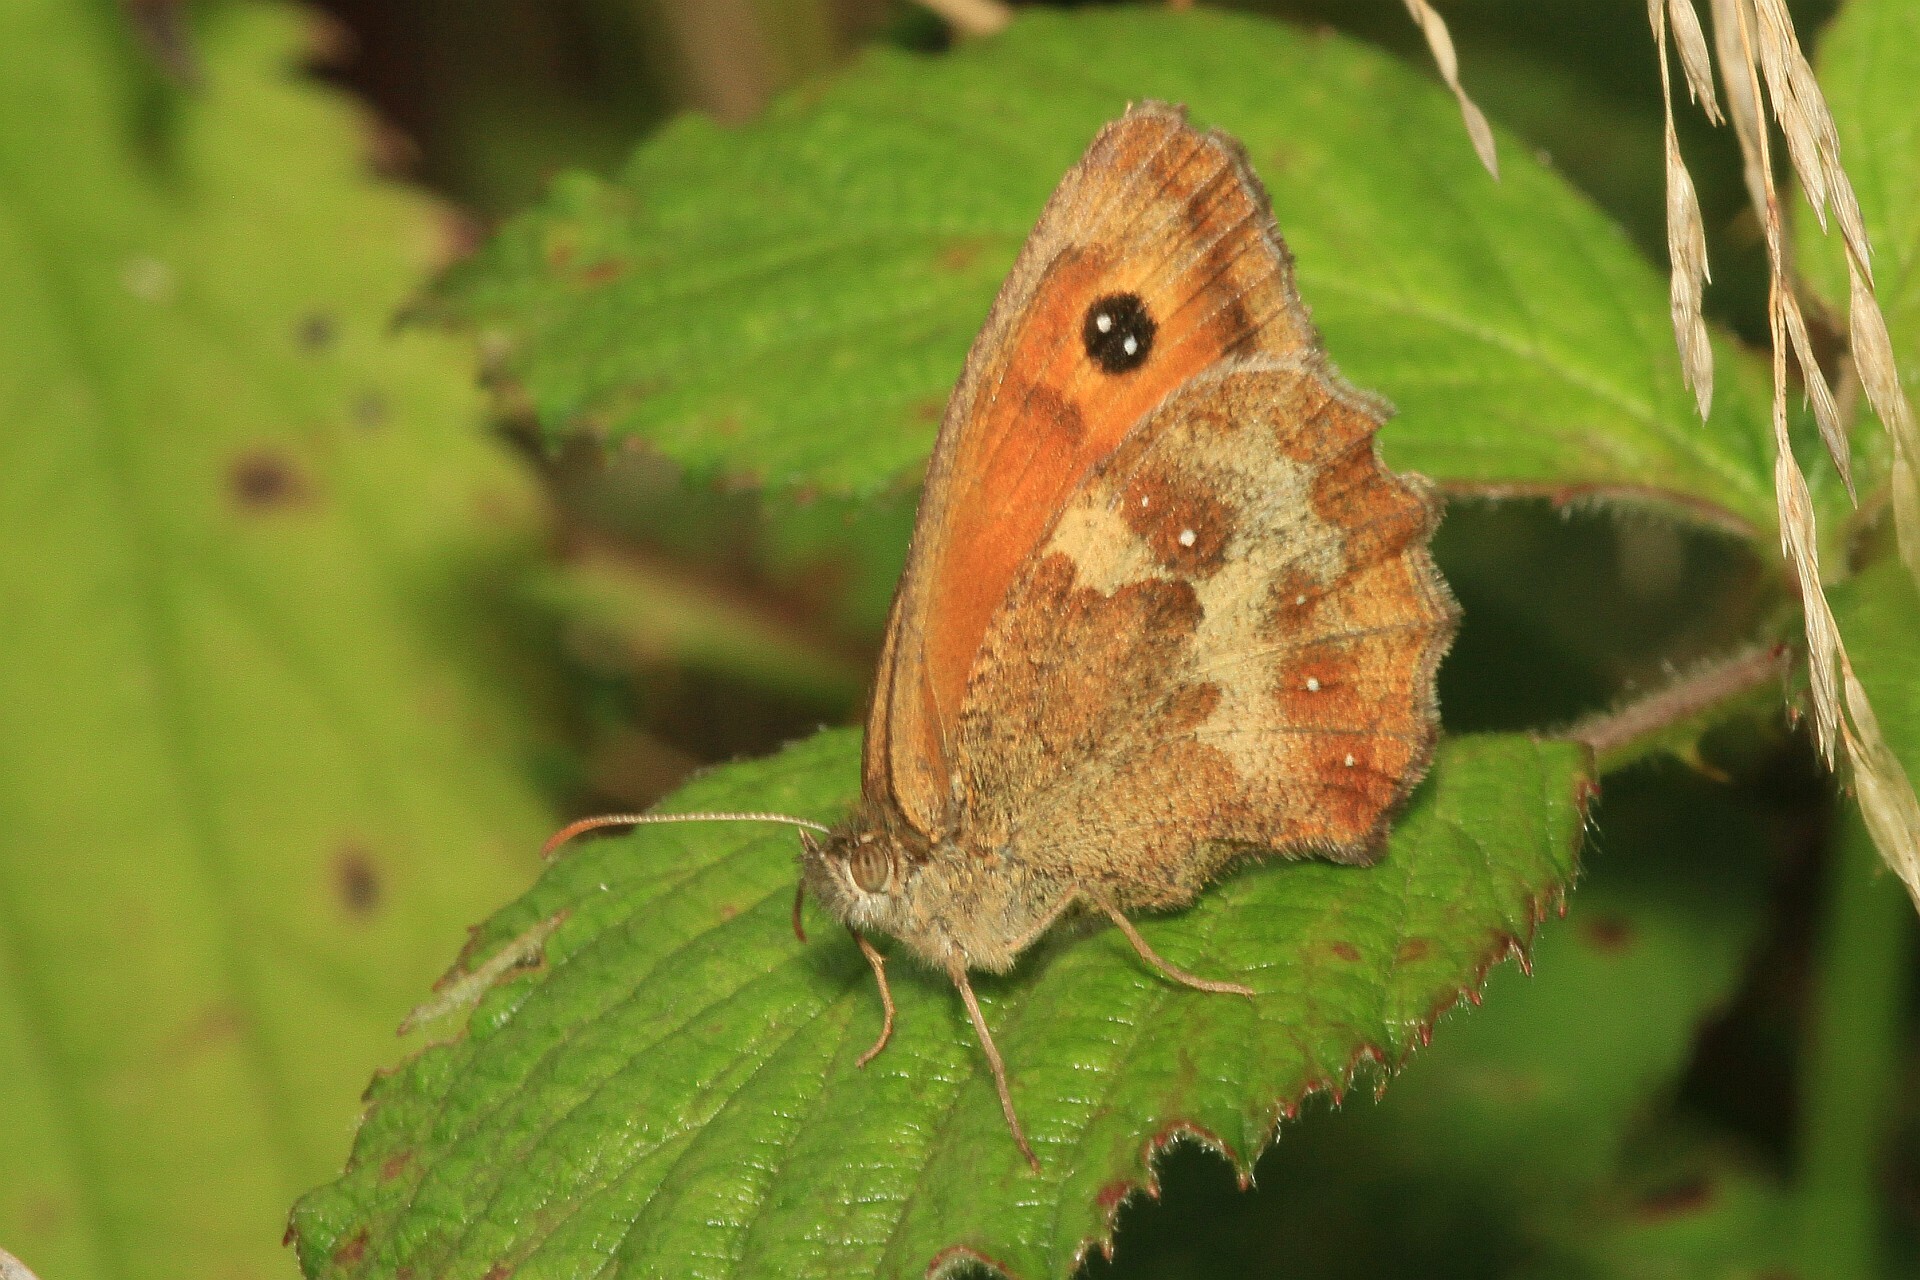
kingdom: Animalia
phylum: Arthropoda
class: Insecta
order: Lepidoptera
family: Nymphalidae
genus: Pyronia
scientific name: Pyronia tithonus
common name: Gatekeeper
